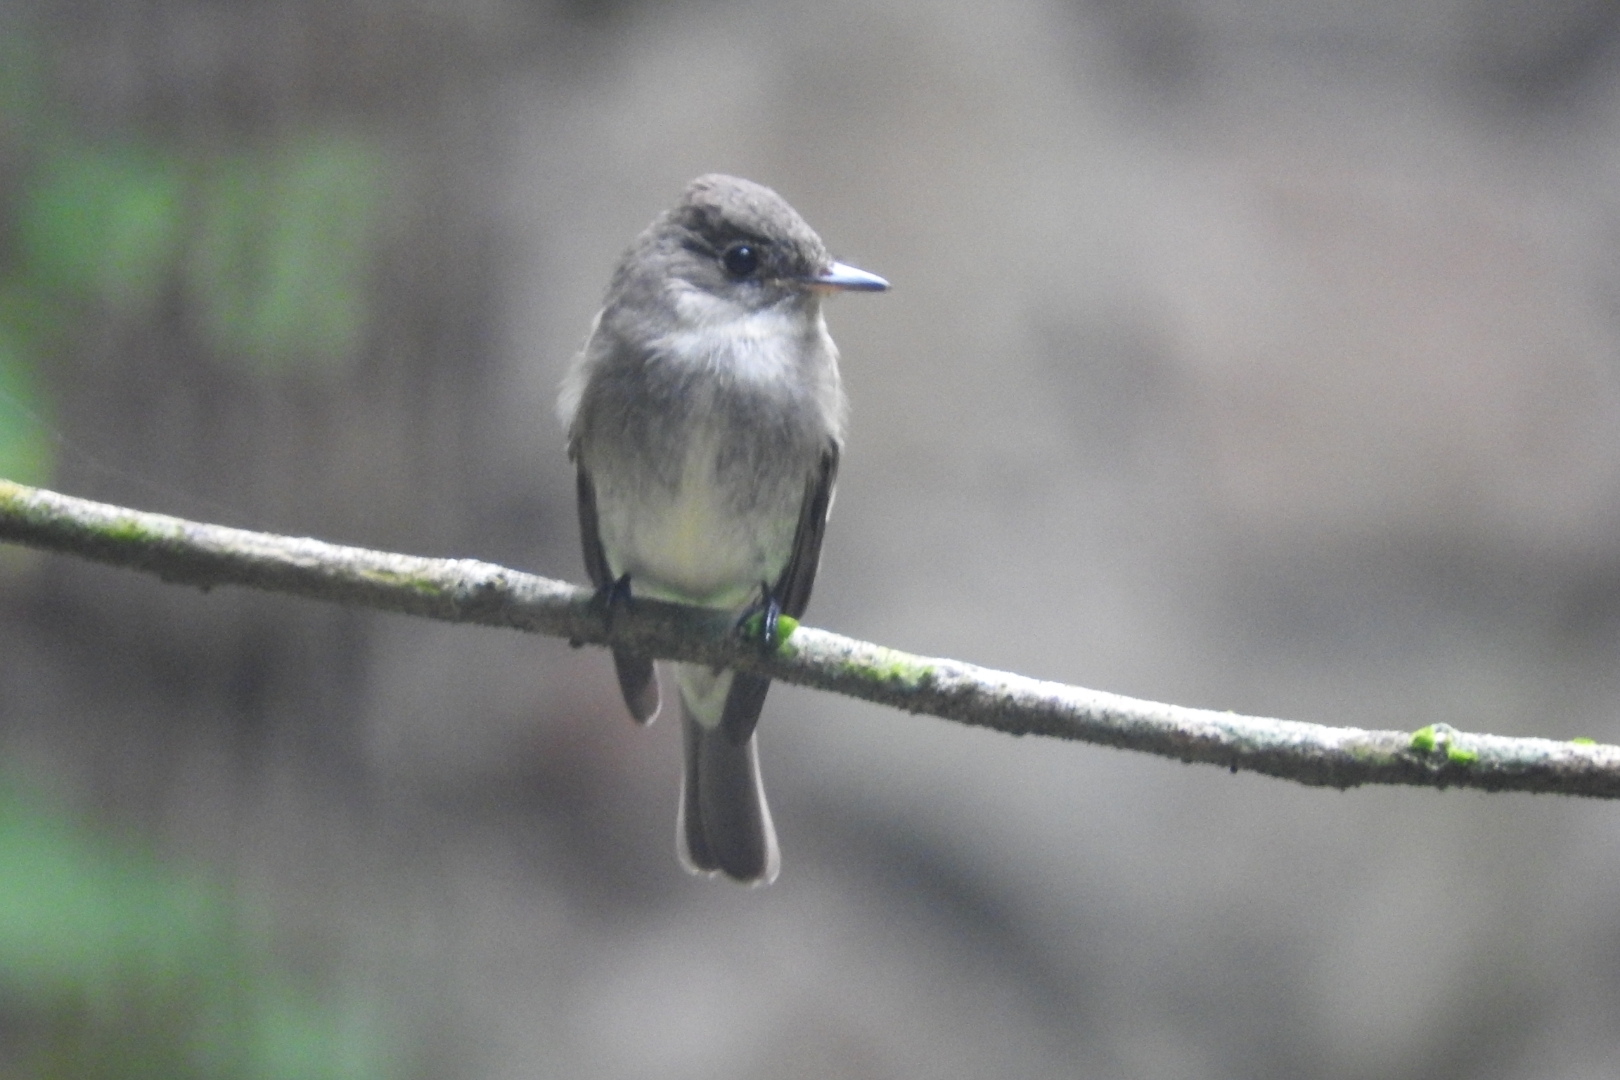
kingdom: Animalia
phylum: Chordata
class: Aves
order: Passeriformes
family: Tyrannidae
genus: Contopus
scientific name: Contopus cinereus
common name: Tropical pewee
